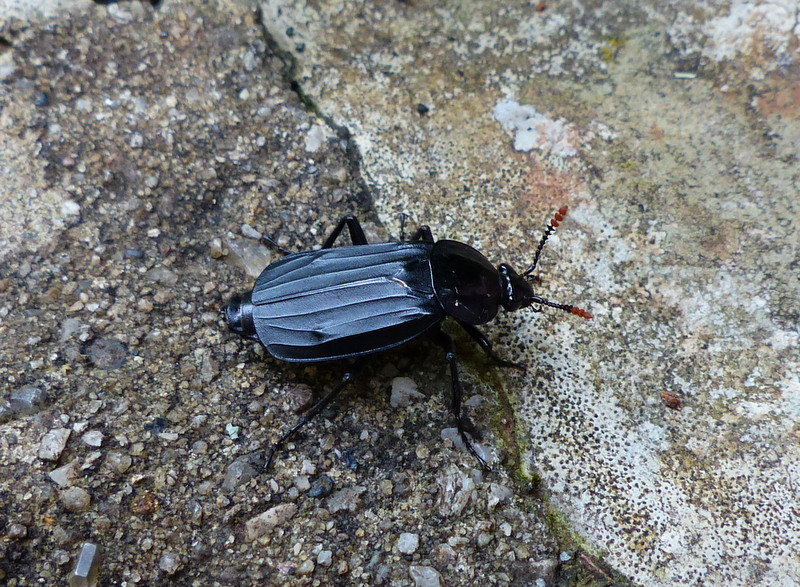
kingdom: Animalia
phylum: Arthropoda
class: Insecta
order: Coleoptera
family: Staphylinidae
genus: Necrodes
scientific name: Necrodes littoralis
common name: Shore sexton beetle
